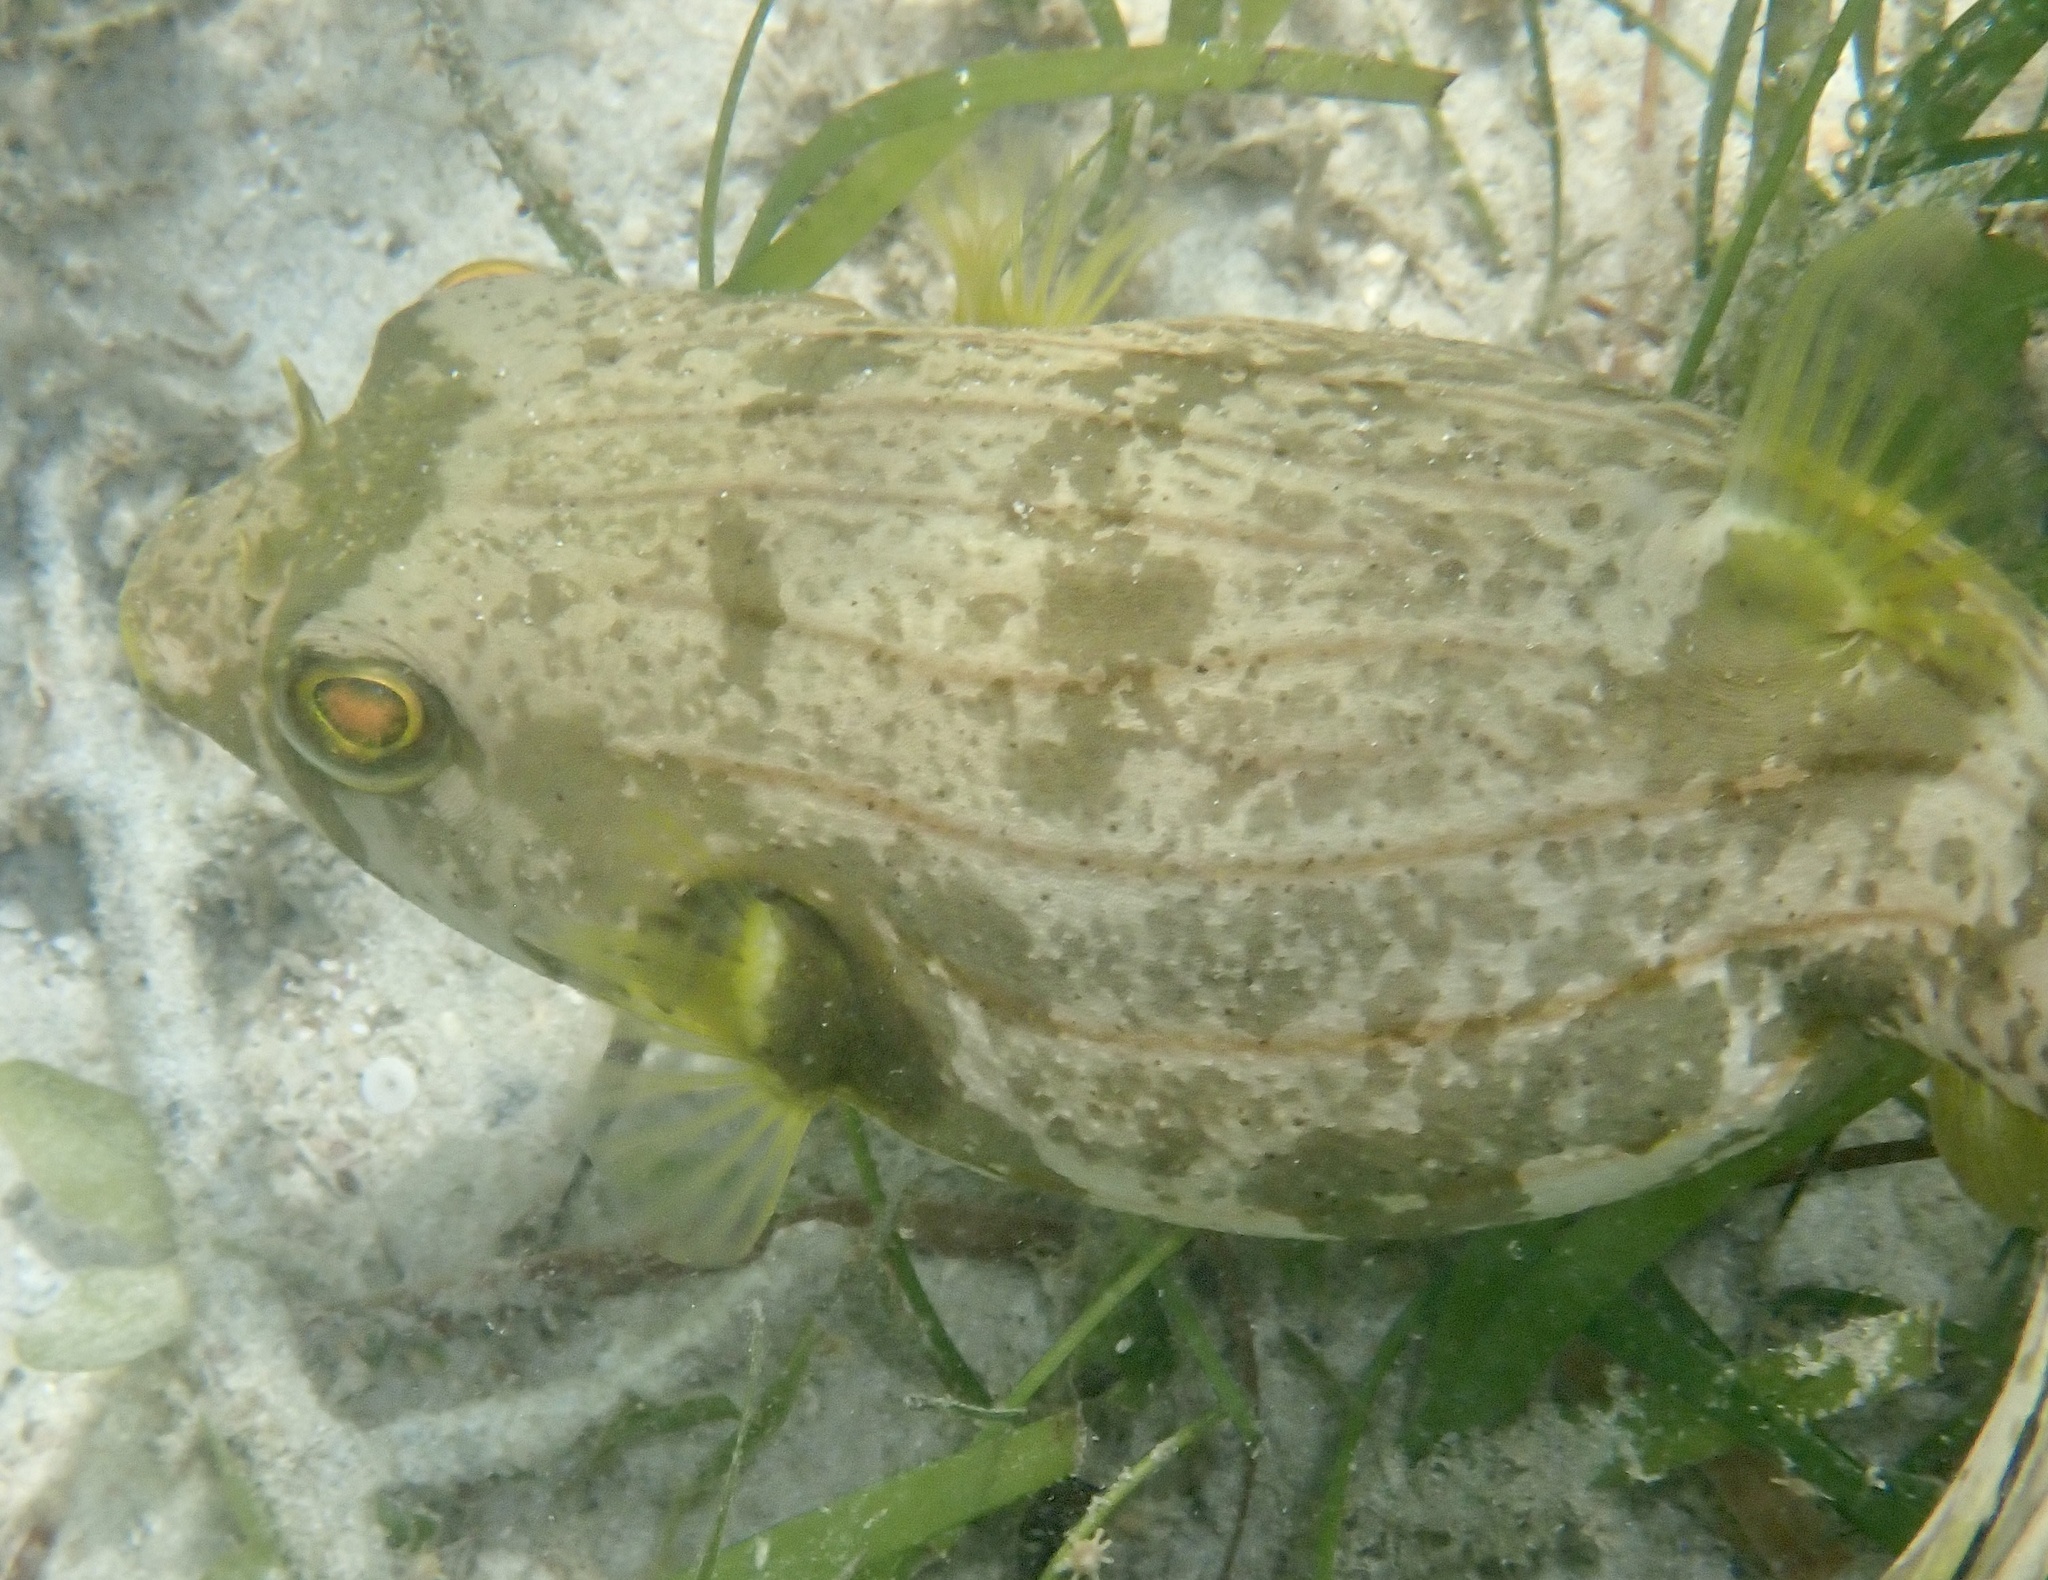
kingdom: Animalia
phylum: Chordata
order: Tetraodontiformes
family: Tetraodontidae
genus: Arothron
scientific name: Arothron manilensis
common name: Narrow-lined puffer
